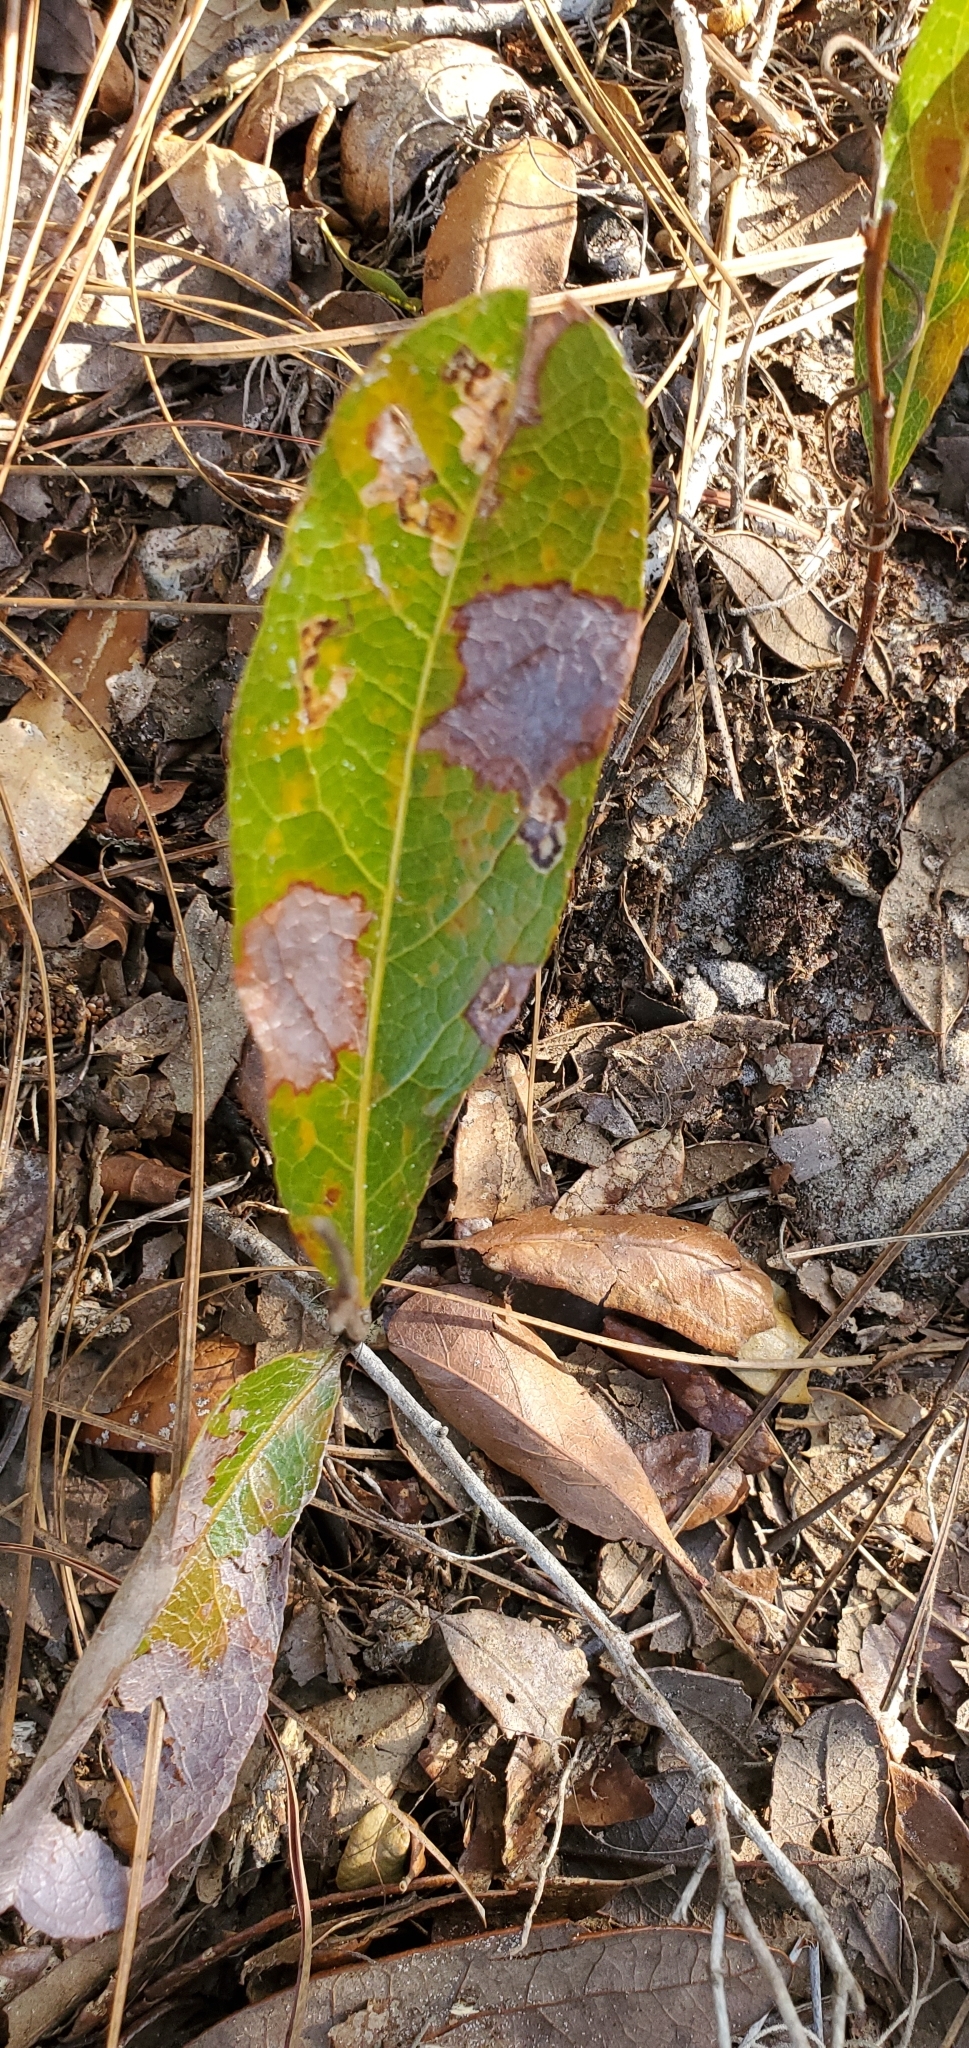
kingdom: Plantae
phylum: Tracheophyta
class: Magnoliopsida
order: Malpighiales
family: Chrysobalanaceae
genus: Geobalanus
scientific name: Geobalanus oblongifolius
